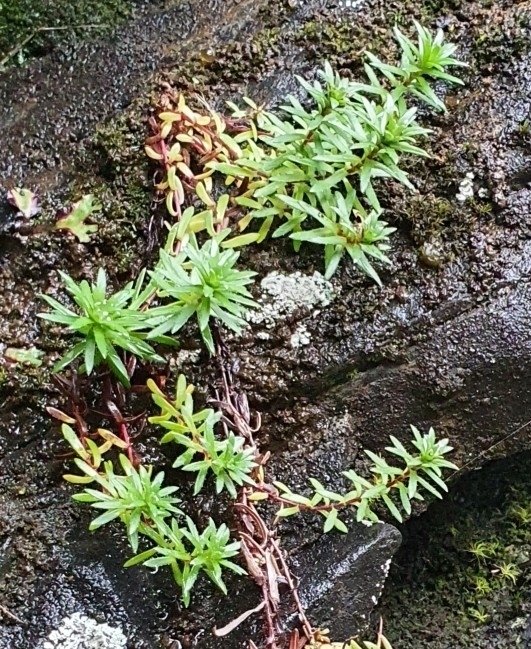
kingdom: Plantae
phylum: Tracheophyta
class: Magnoliopsida
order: Saxifragales
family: Saxifragaceae
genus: Saxifraga
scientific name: Saxifraga aizoides
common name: Yellow mountain saxifrage
